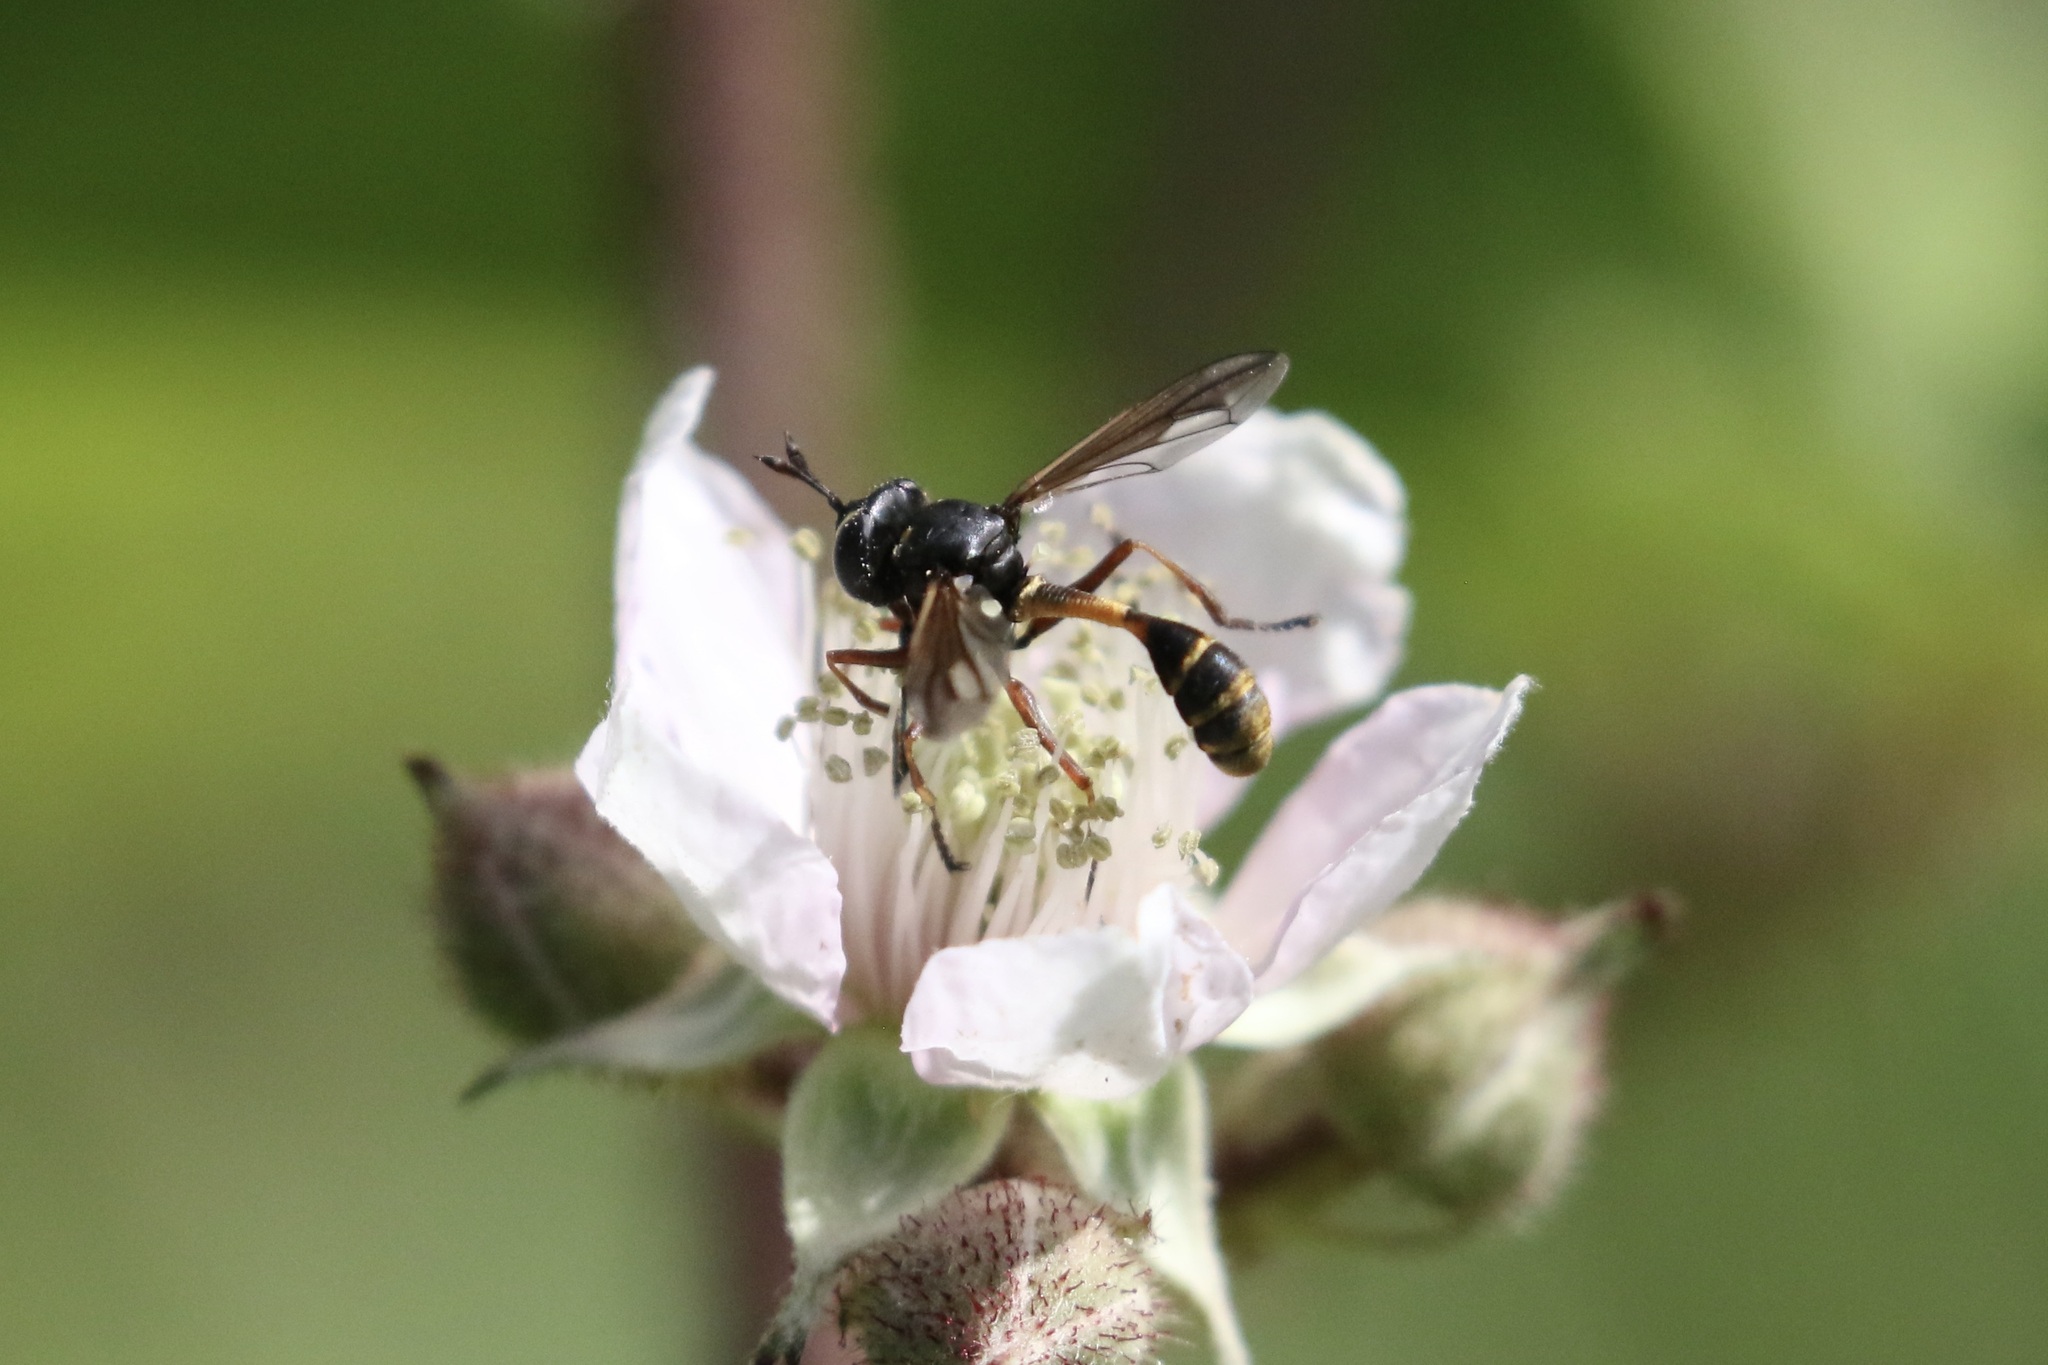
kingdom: Animalia
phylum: Arthropoda
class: Insecta
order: Diptera
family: Conopidae
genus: Physocephala
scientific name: Physocephala rufipes
